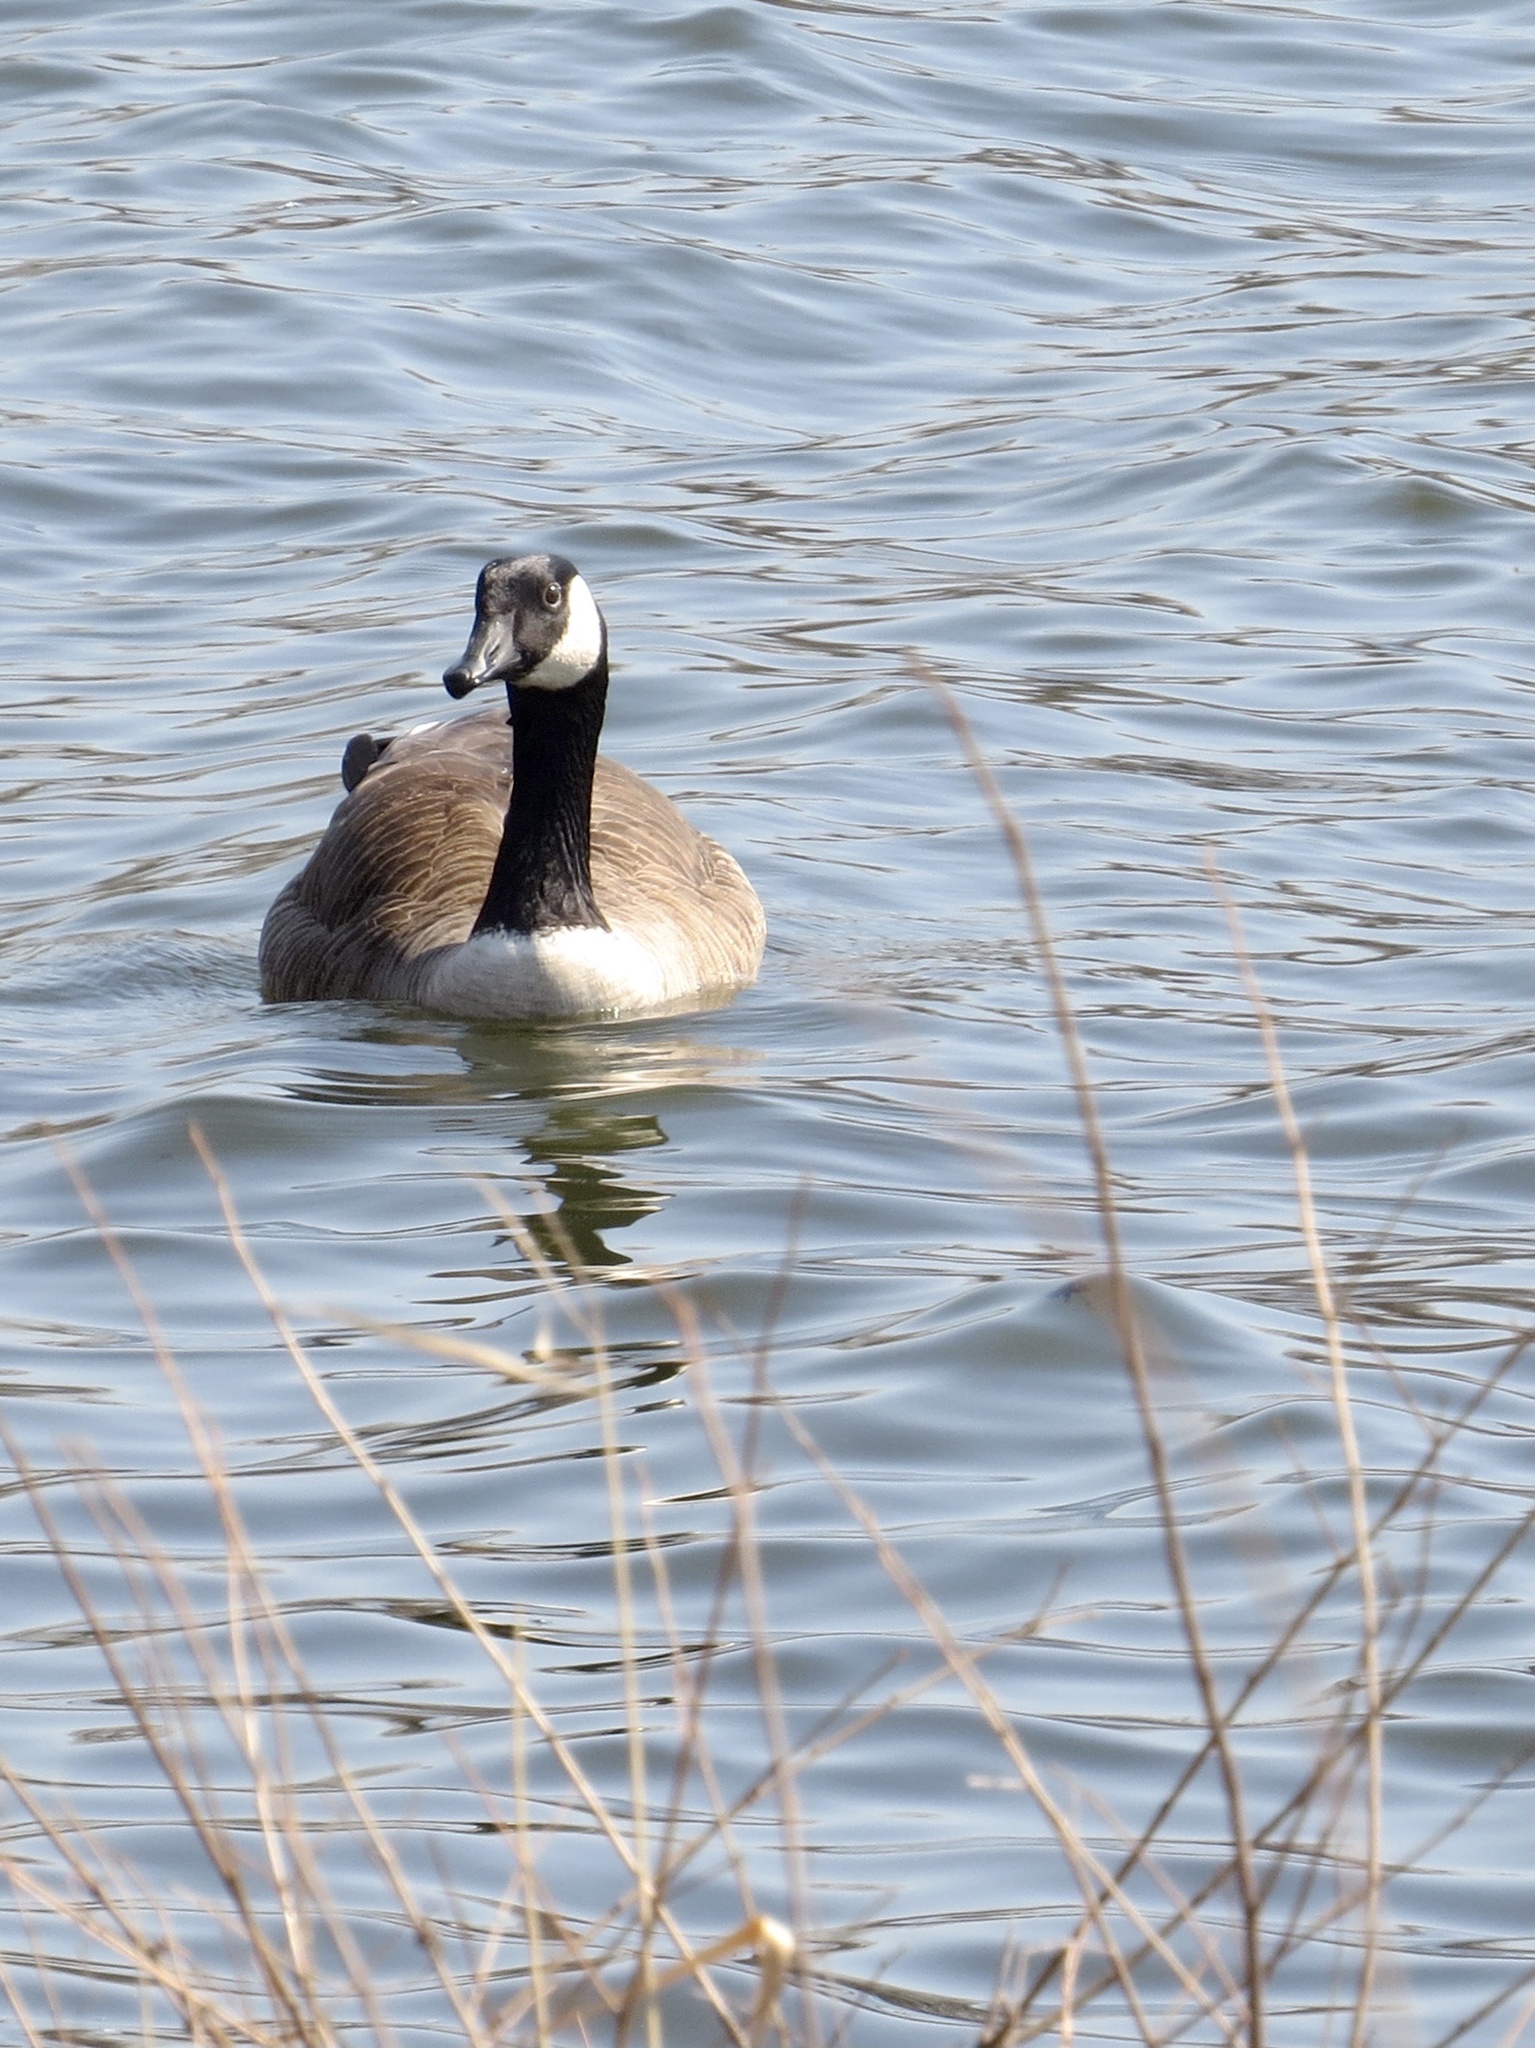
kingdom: Animalia
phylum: Chordata
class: Aves
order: Anseriformes
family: Anatidae
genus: Branta
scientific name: Branta canadensis
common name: Canada goose
